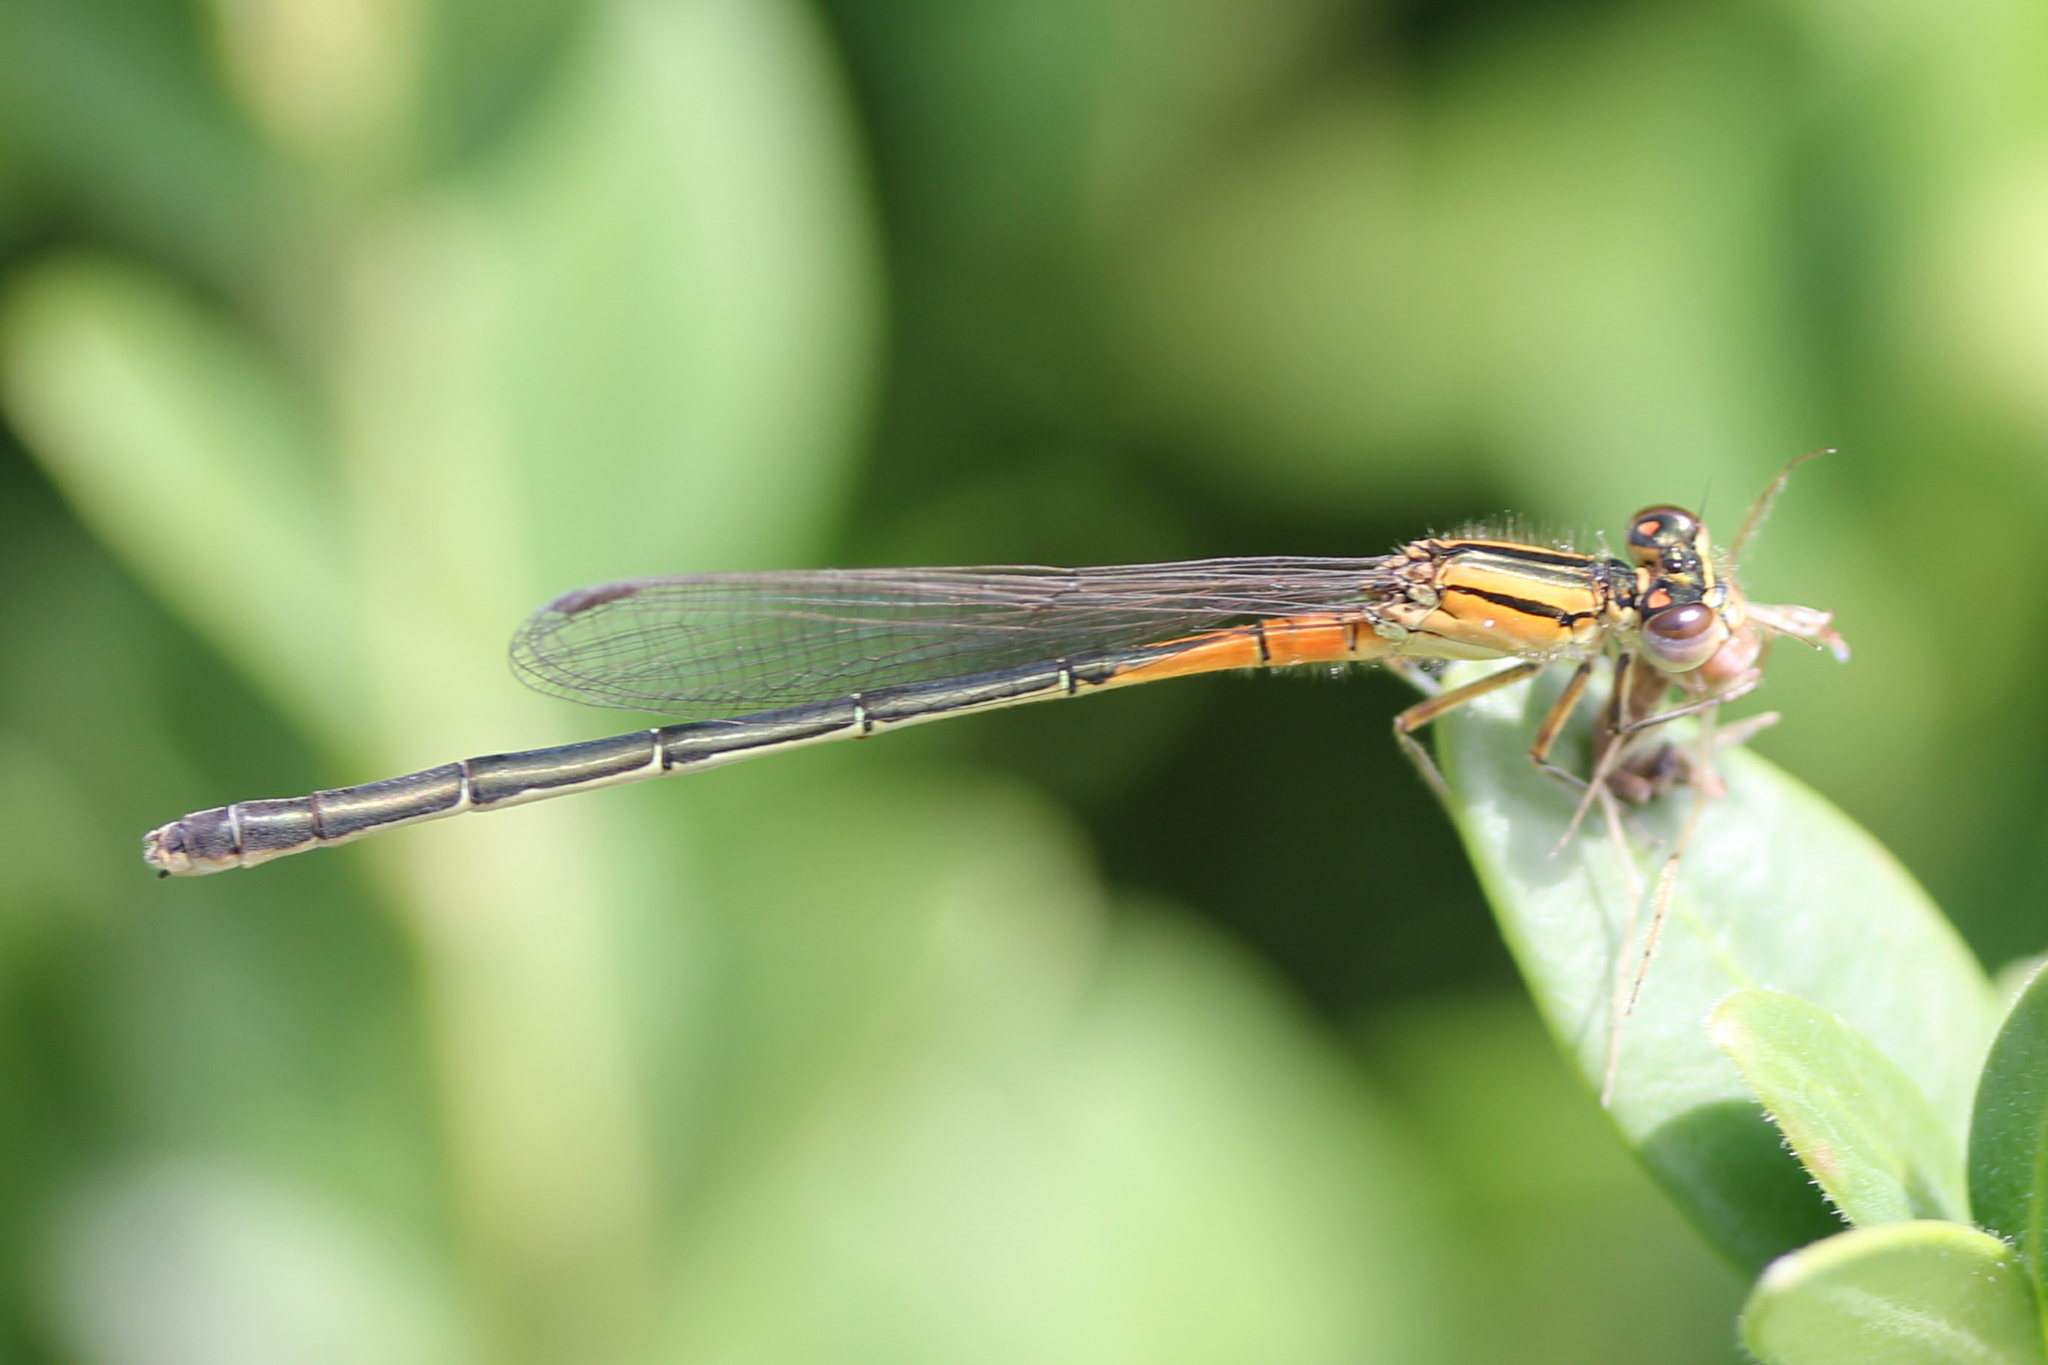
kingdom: Animalia
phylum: Arthropoda
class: Insecta
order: Odonata
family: Coenagrionidae
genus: Ischnura
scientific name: Ischnura verticalis
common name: Eastern forktail
